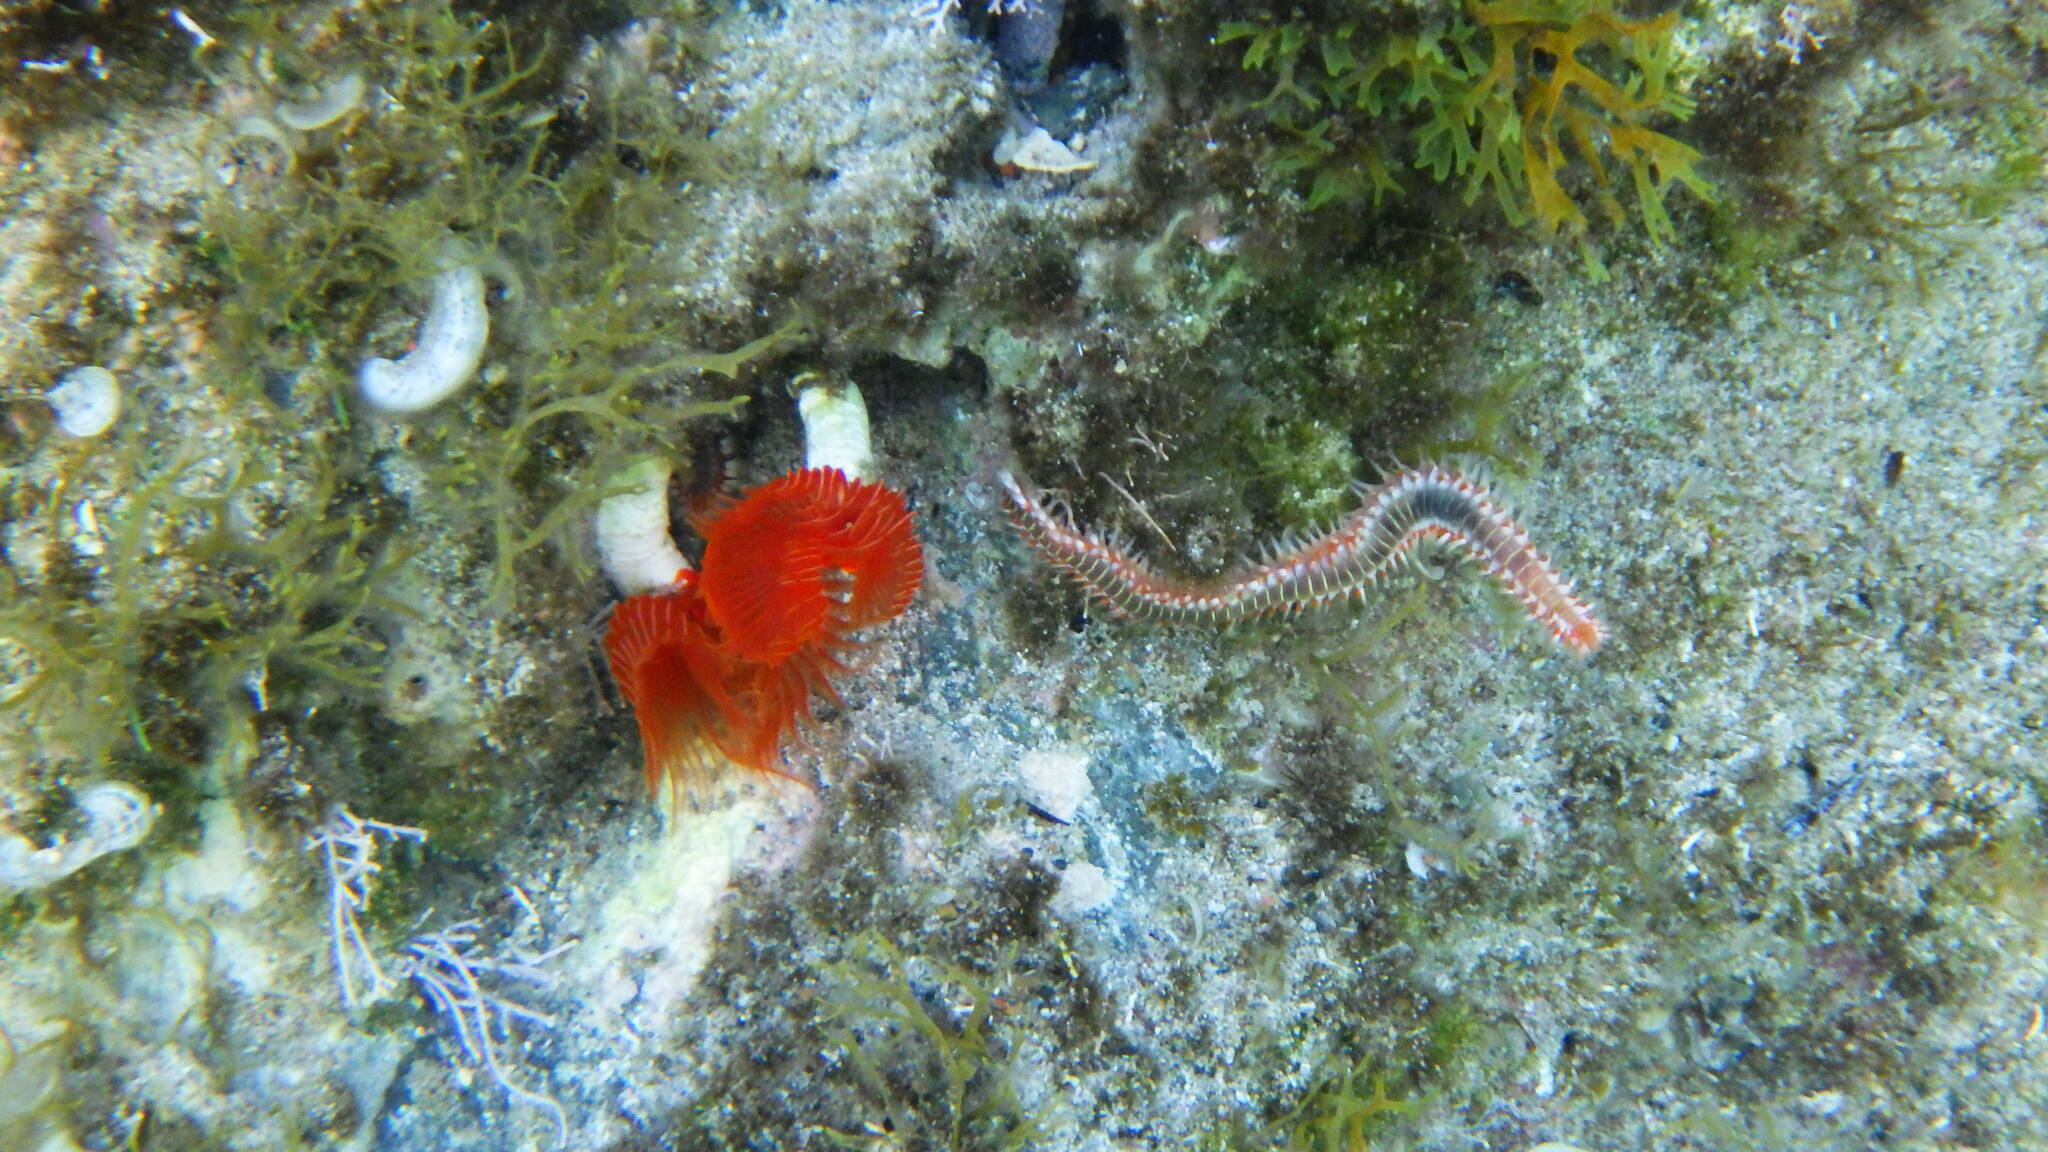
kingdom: Animalia
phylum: Annelida
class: Polychaeta
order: Amphinomida
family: Amphinomidae
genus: Hermodice
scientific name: Hermodice carunculata
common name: Bearded fireworm
